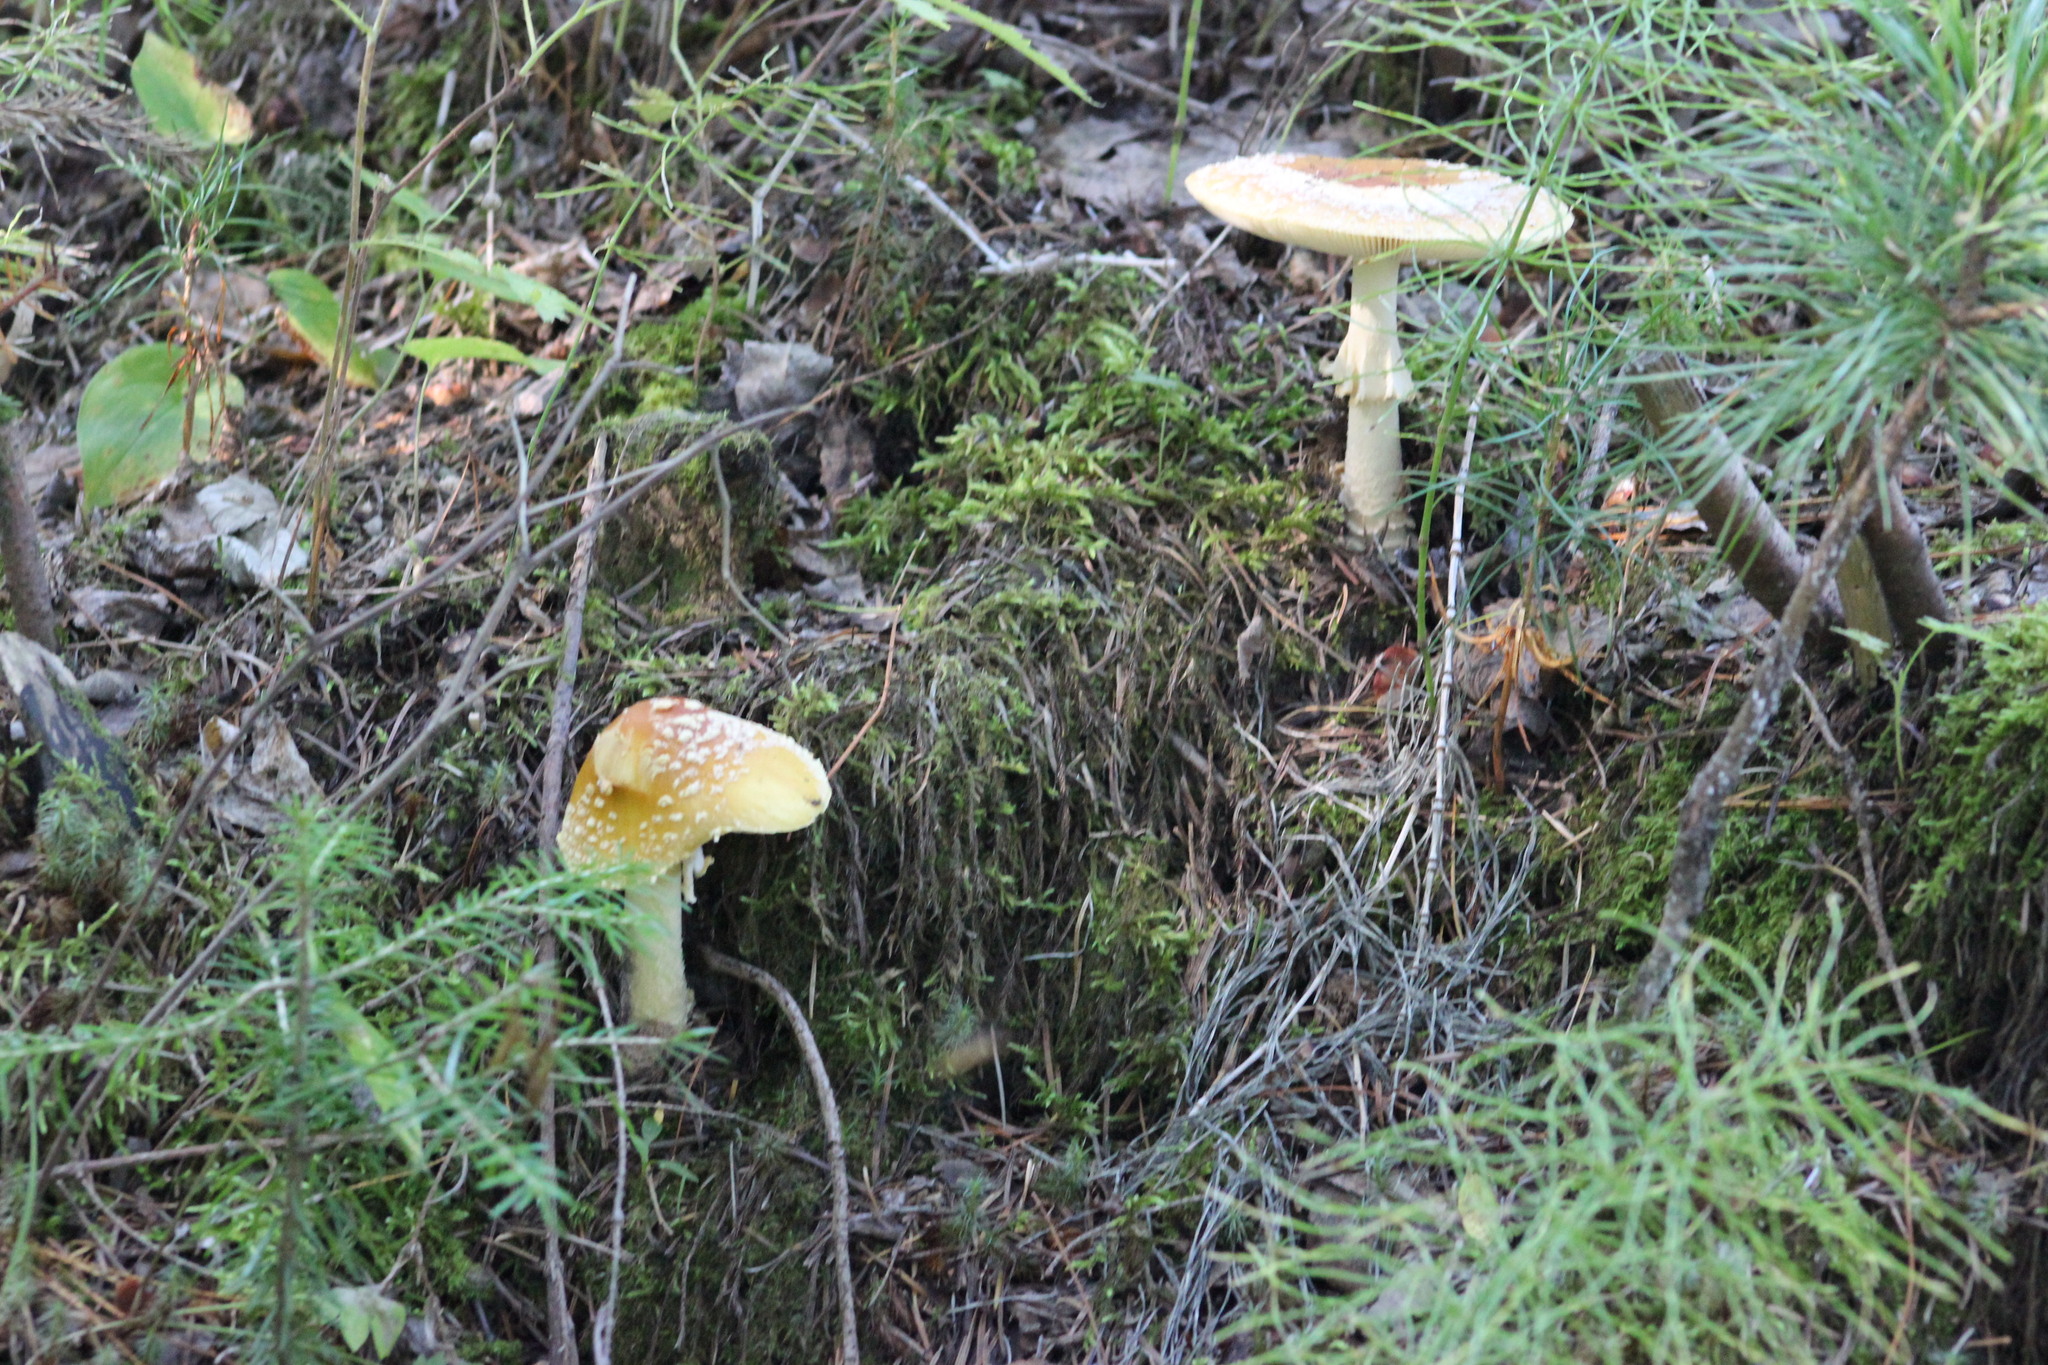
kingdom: Fungi
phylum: Basidiomycota
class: Agaricomycetes
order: Agaricales
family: Amanitaceae
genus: Amanita
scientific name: Amanita regalis
